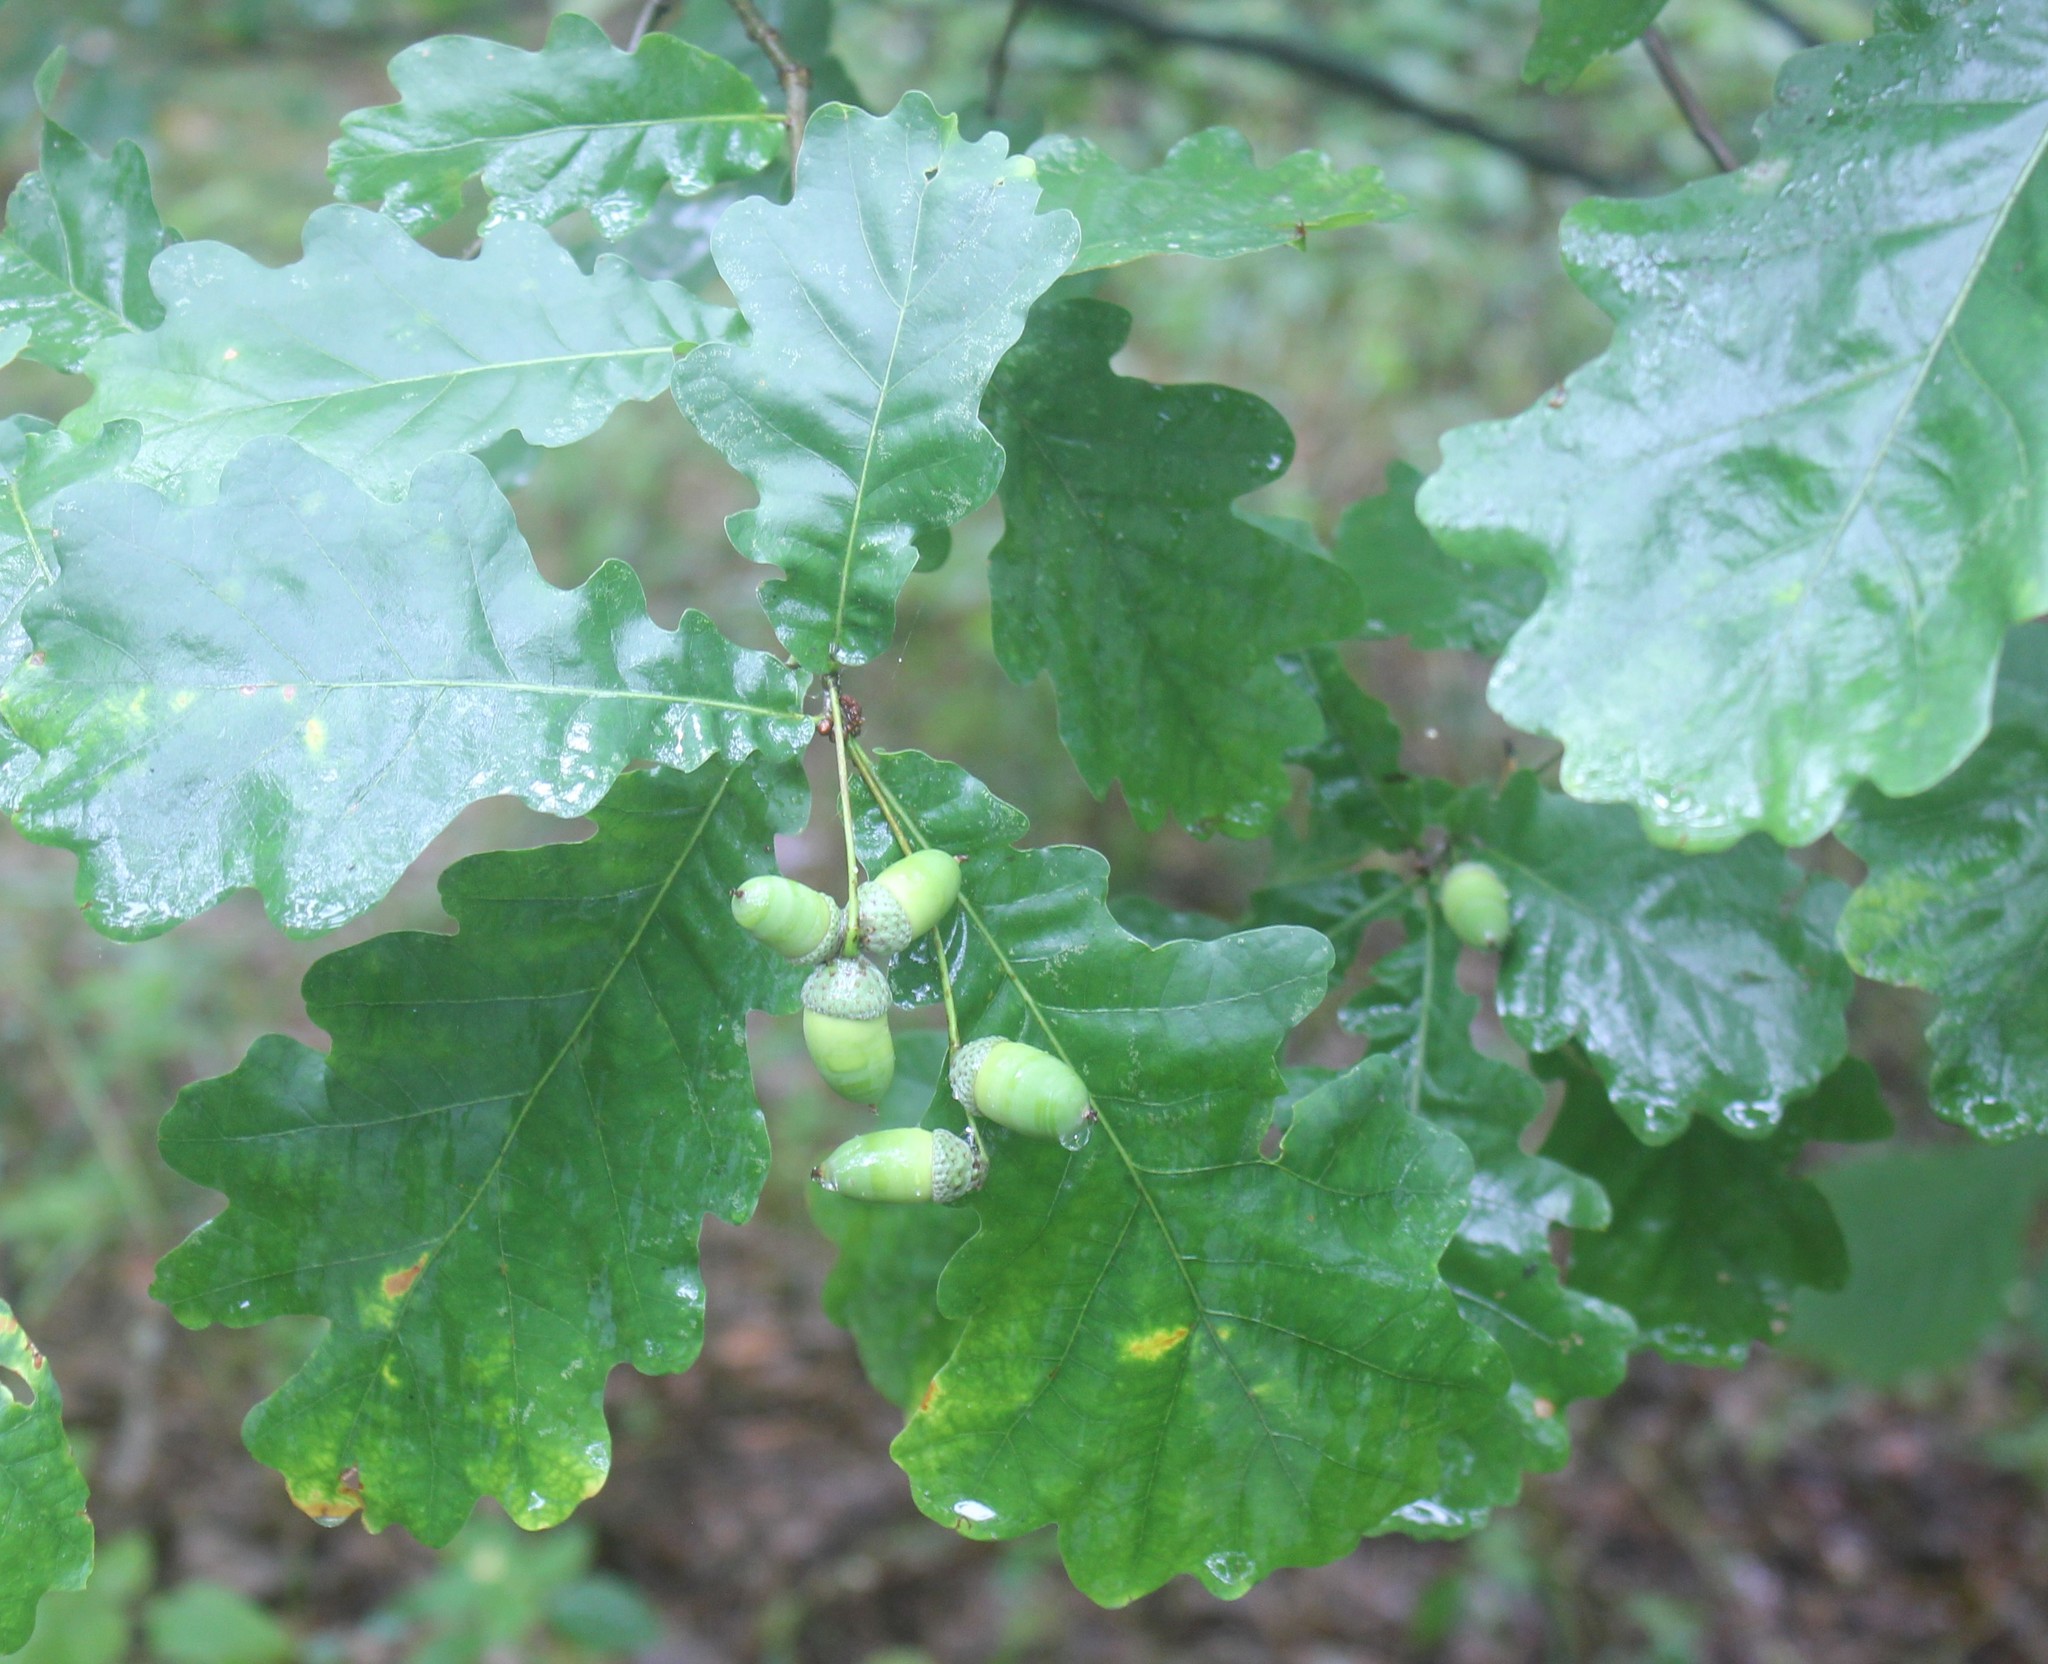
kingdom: Plantae
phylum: Tracheophyta
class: Magnoliopsida
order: Fagales
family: Fagaceae
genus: Quercus
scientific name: Quercus robur
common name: Pedunculate oak
